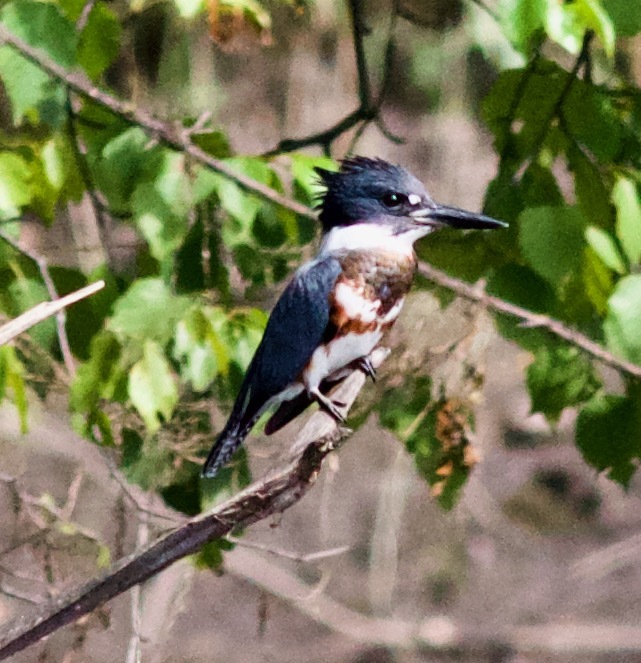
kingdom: Animalia
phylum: Chordata
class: Aves
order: Coraciiformes
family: Alcedinidae
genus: Megaceryle
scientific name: Megaceryle alcyon
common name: Belted kingfisher
